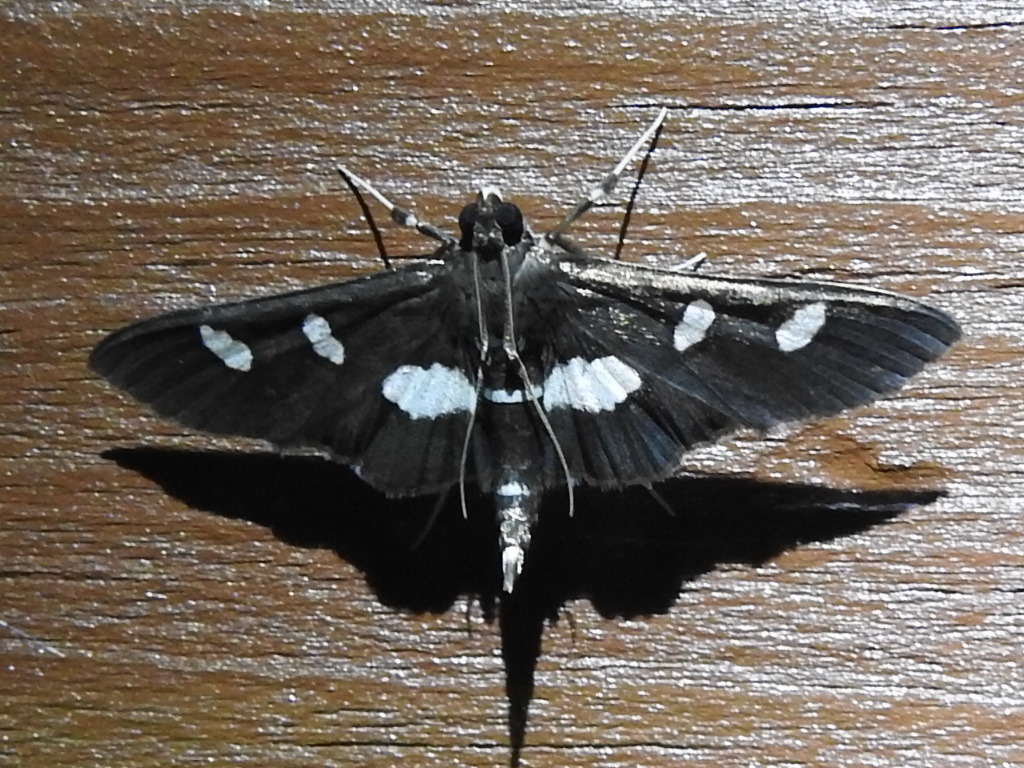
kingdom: Animalia
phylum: Arthropoda
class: Insecta
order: Lepidoptera
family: Crambidae
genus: Desmia
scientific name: Desmia
